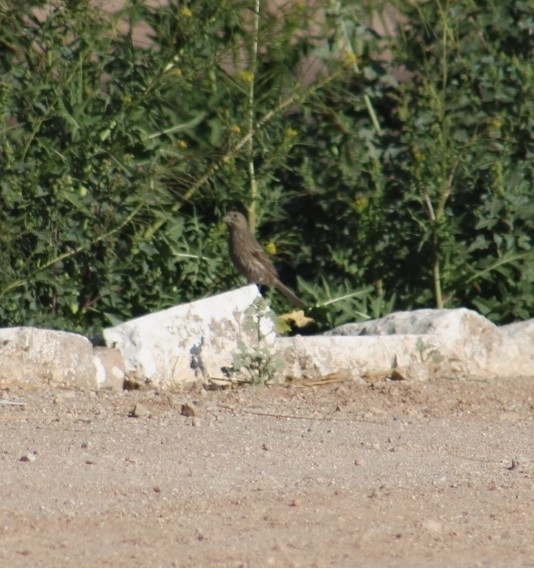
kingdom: Animalia
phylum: Chordata
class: Aves
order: Passeriformes
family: Fringillidae
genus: Haemorhous
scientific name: Haemorhous mexicanus
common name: House finch
